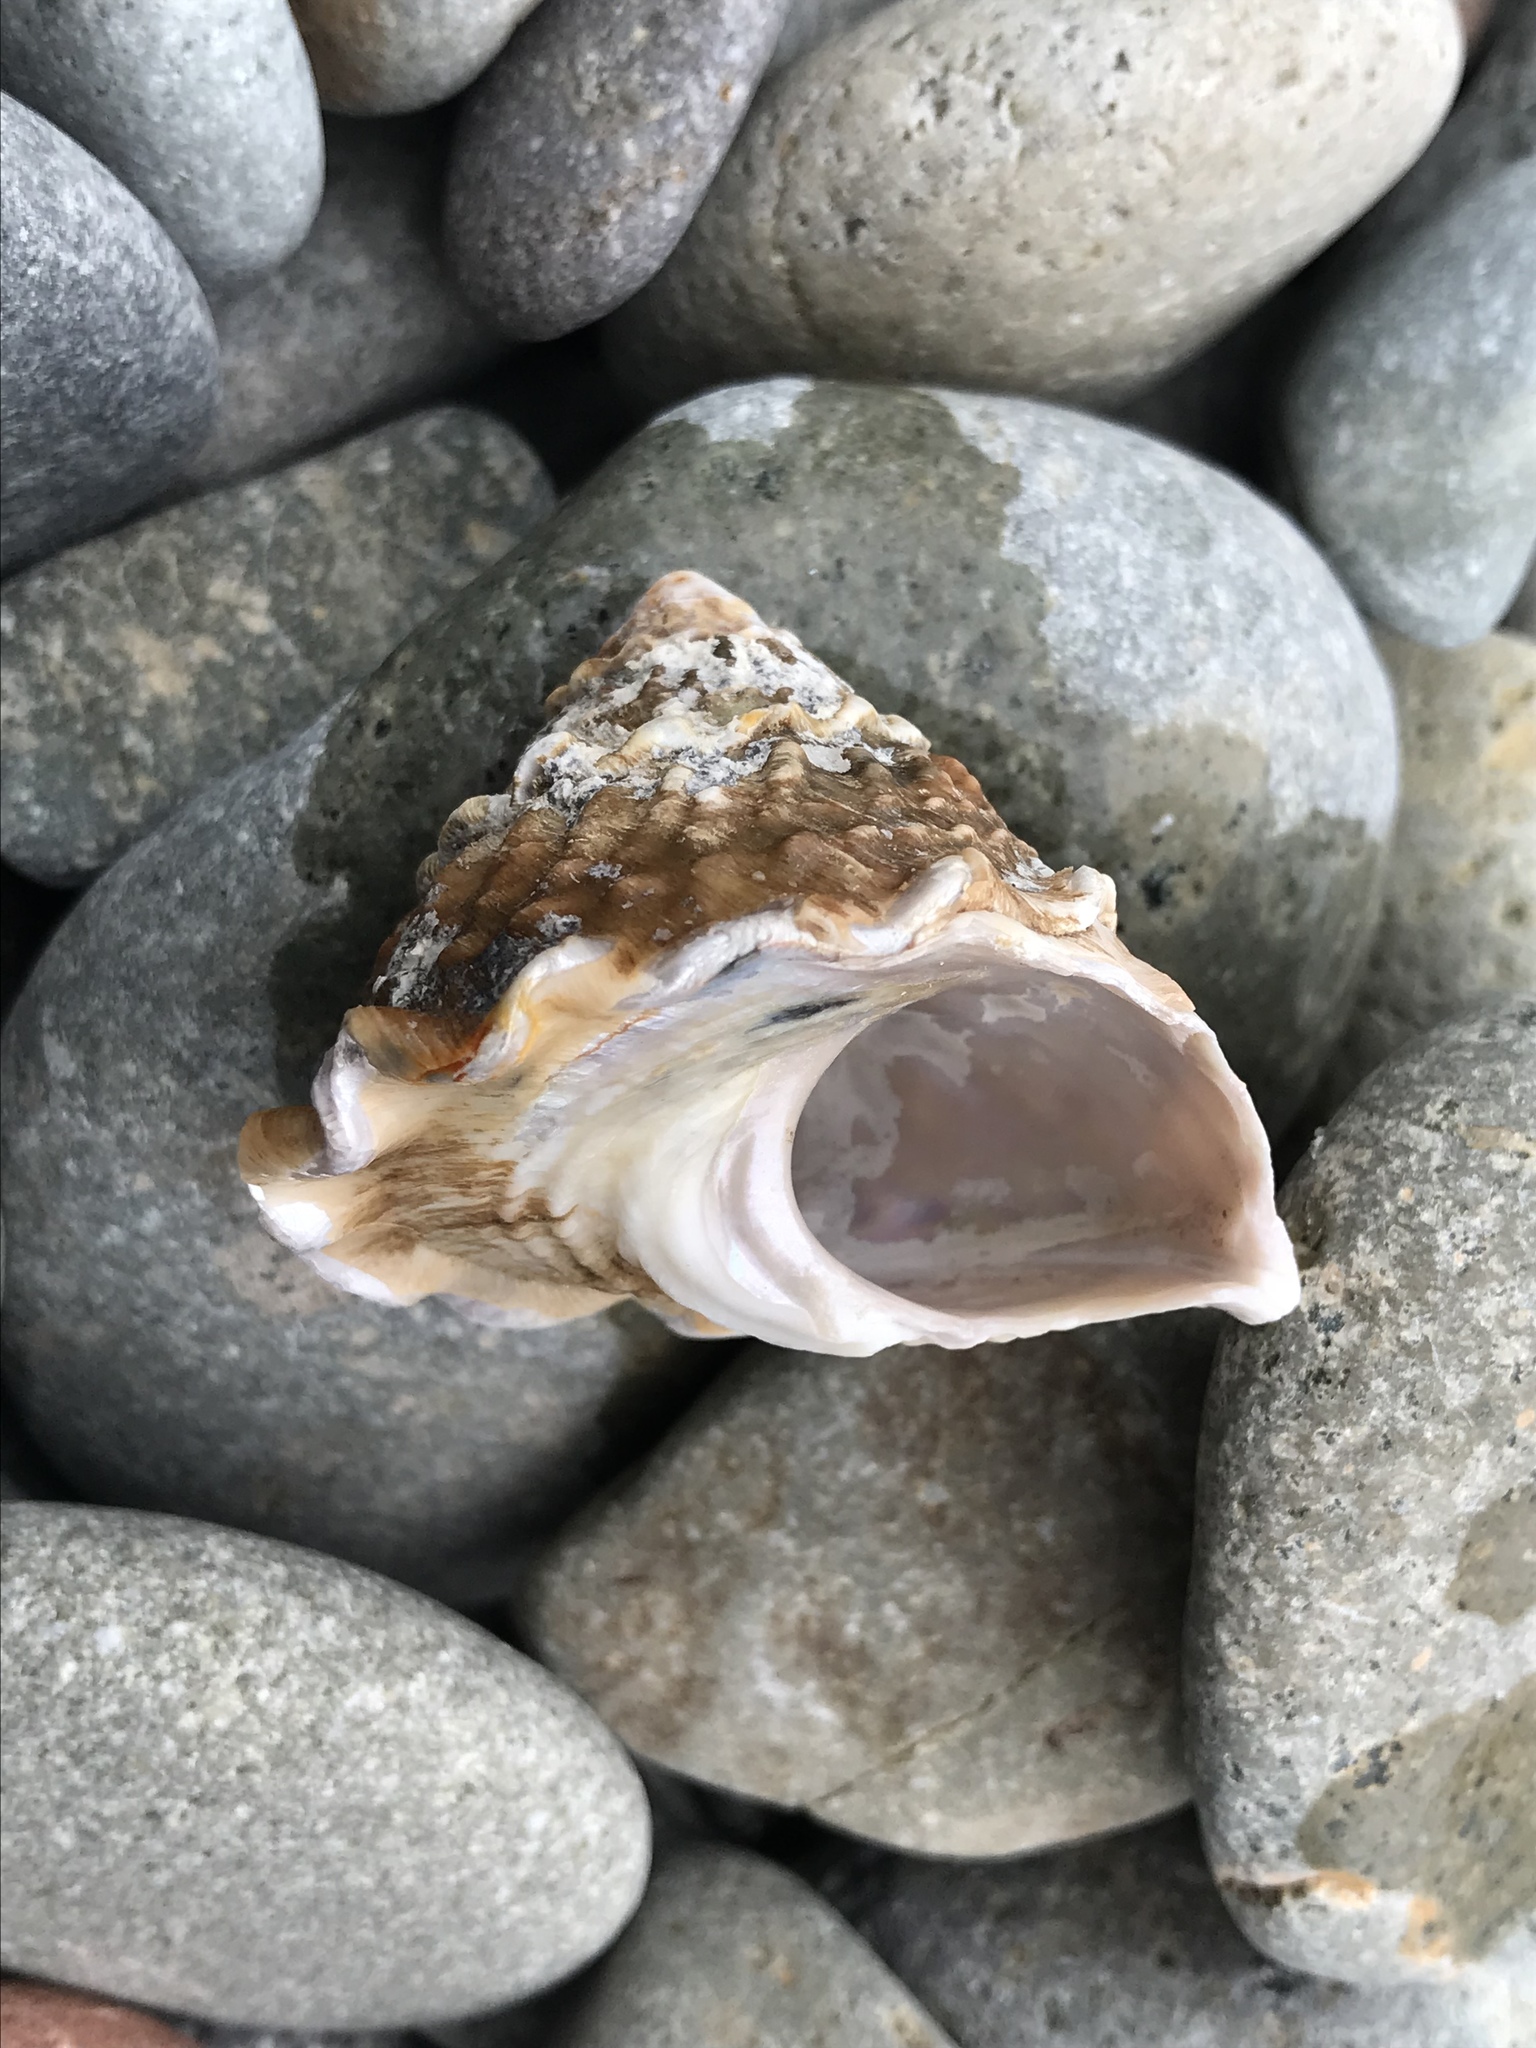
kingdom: Animalia
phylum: Mollusca
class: Gastropoda
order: Trochida
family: Turbinidae
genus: Megastraea
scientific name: Megastraea undosa
